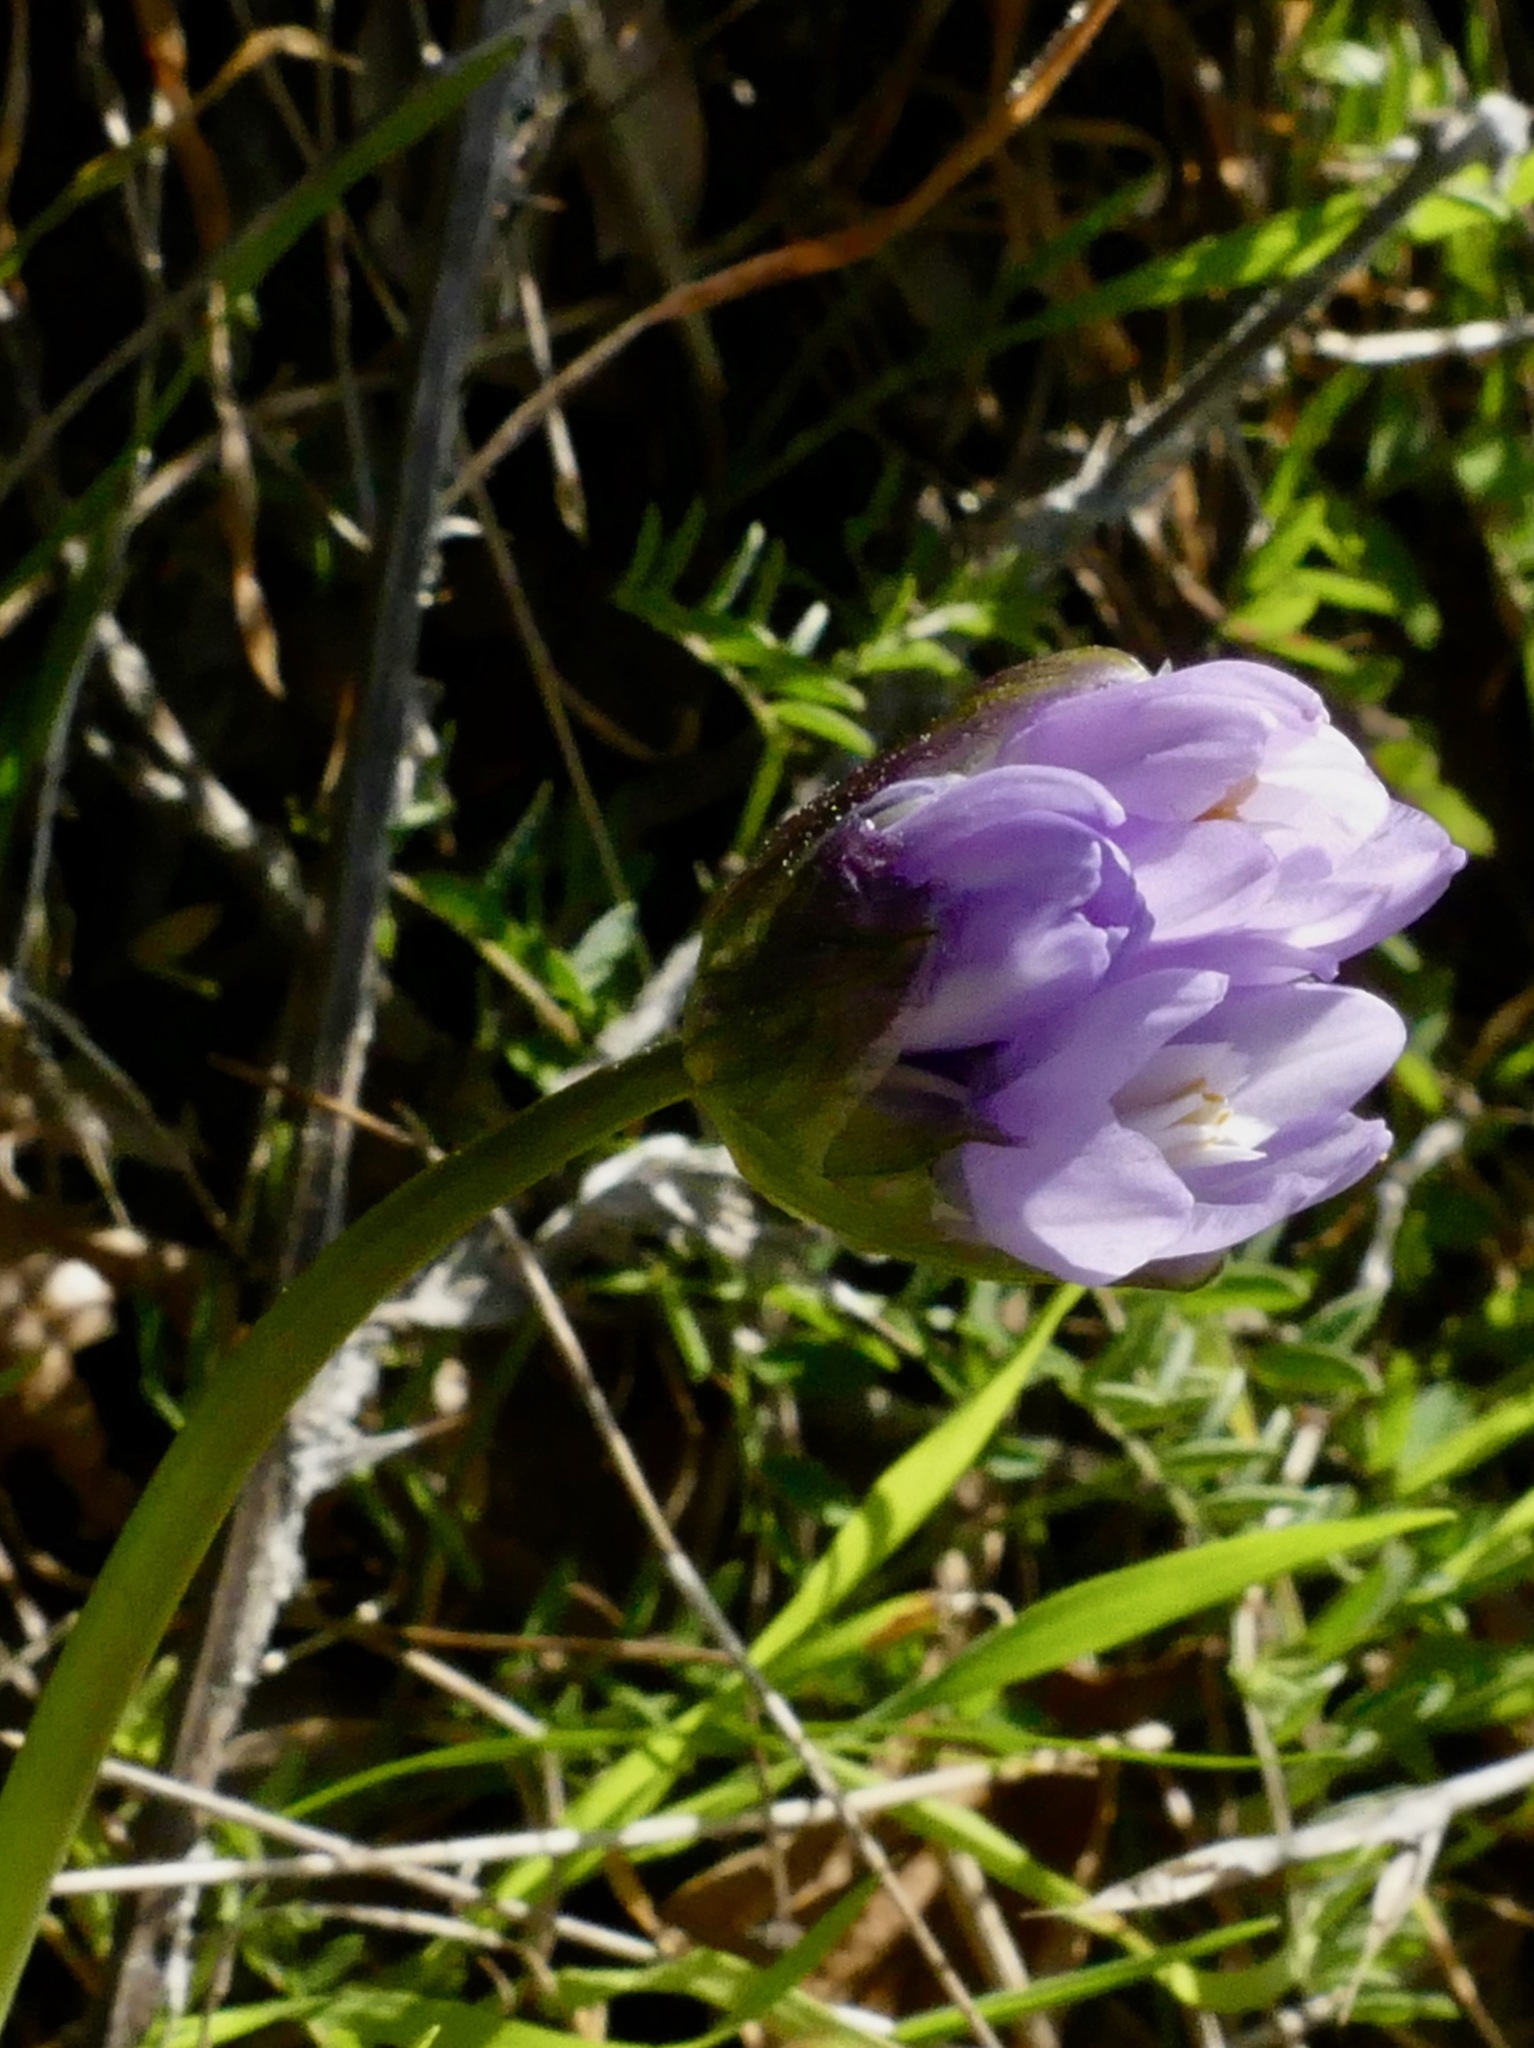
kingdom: Plantae
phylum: Tracheophyta
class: Liliopsida
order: Asparagales
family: Asparagaceae
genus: Dipterostemon
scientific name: Dipterostemon capitatus
